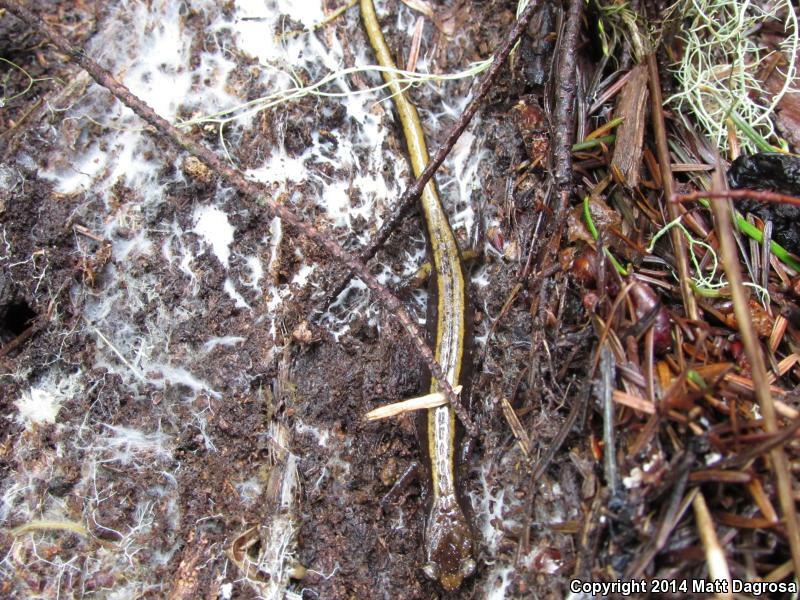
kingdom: Animalia
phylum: Chordata
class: Amphibia
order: Caudata
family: Plethodontidae
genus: Plethodon
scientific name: Plethodon vehiculum
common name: Western red-backed salamander
